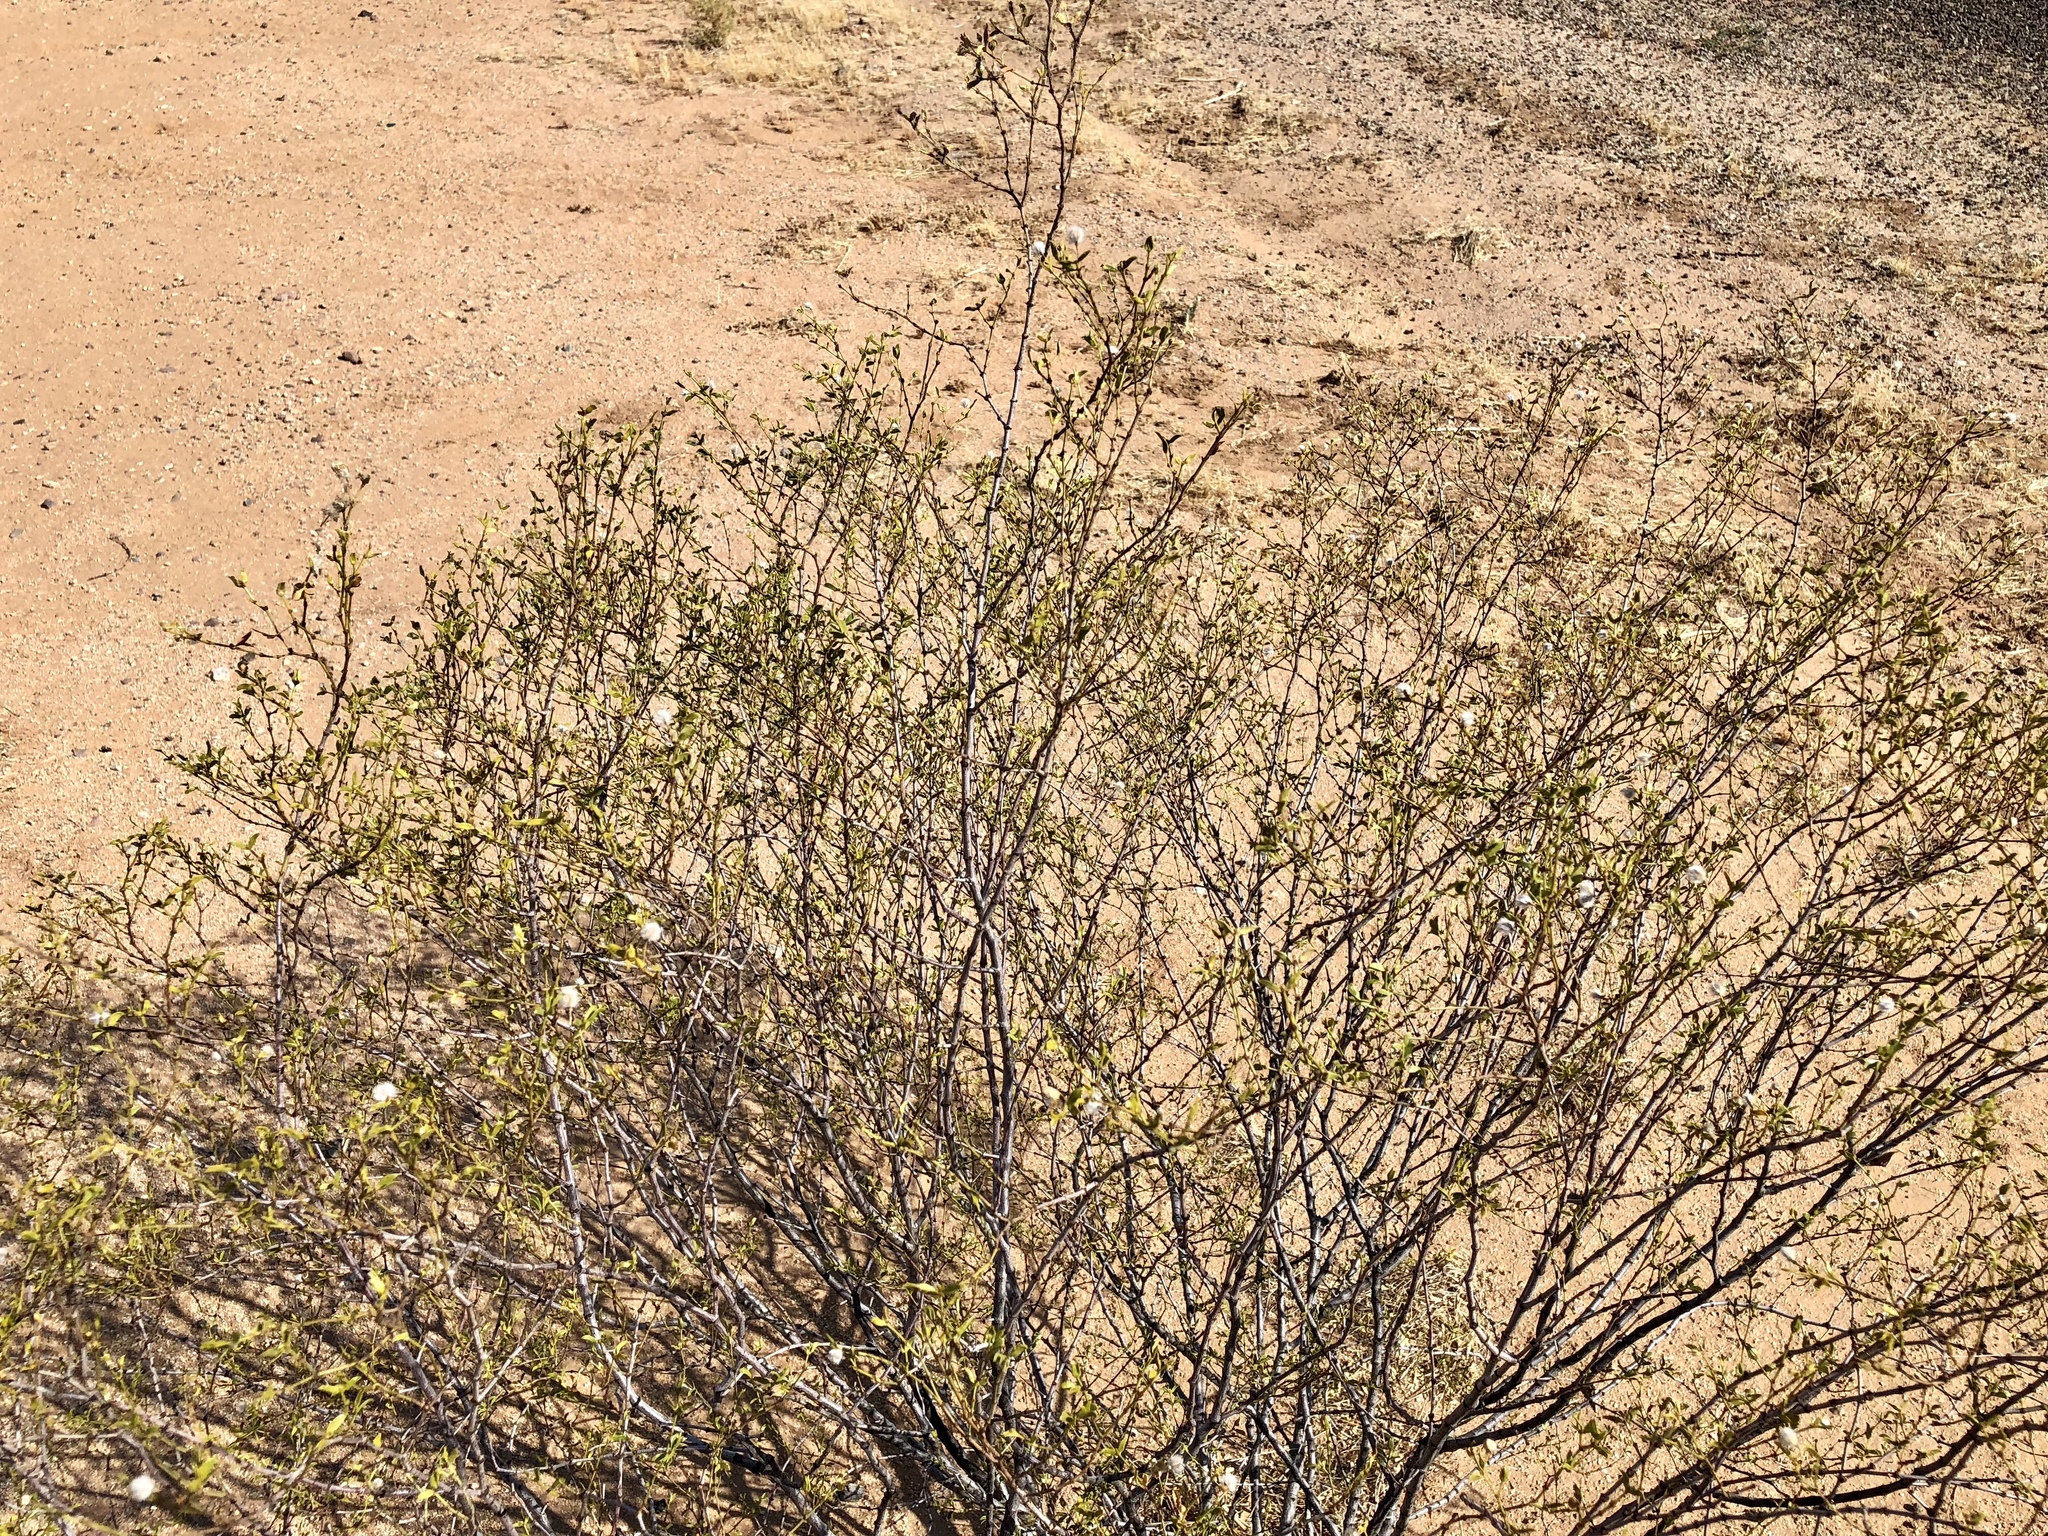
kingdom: Plantae
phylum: Tracheophyta
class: Magnoliopsida
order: Zygophyllales
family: Zygophyllaceae
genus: Larrea
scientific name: Larrea tridentata
